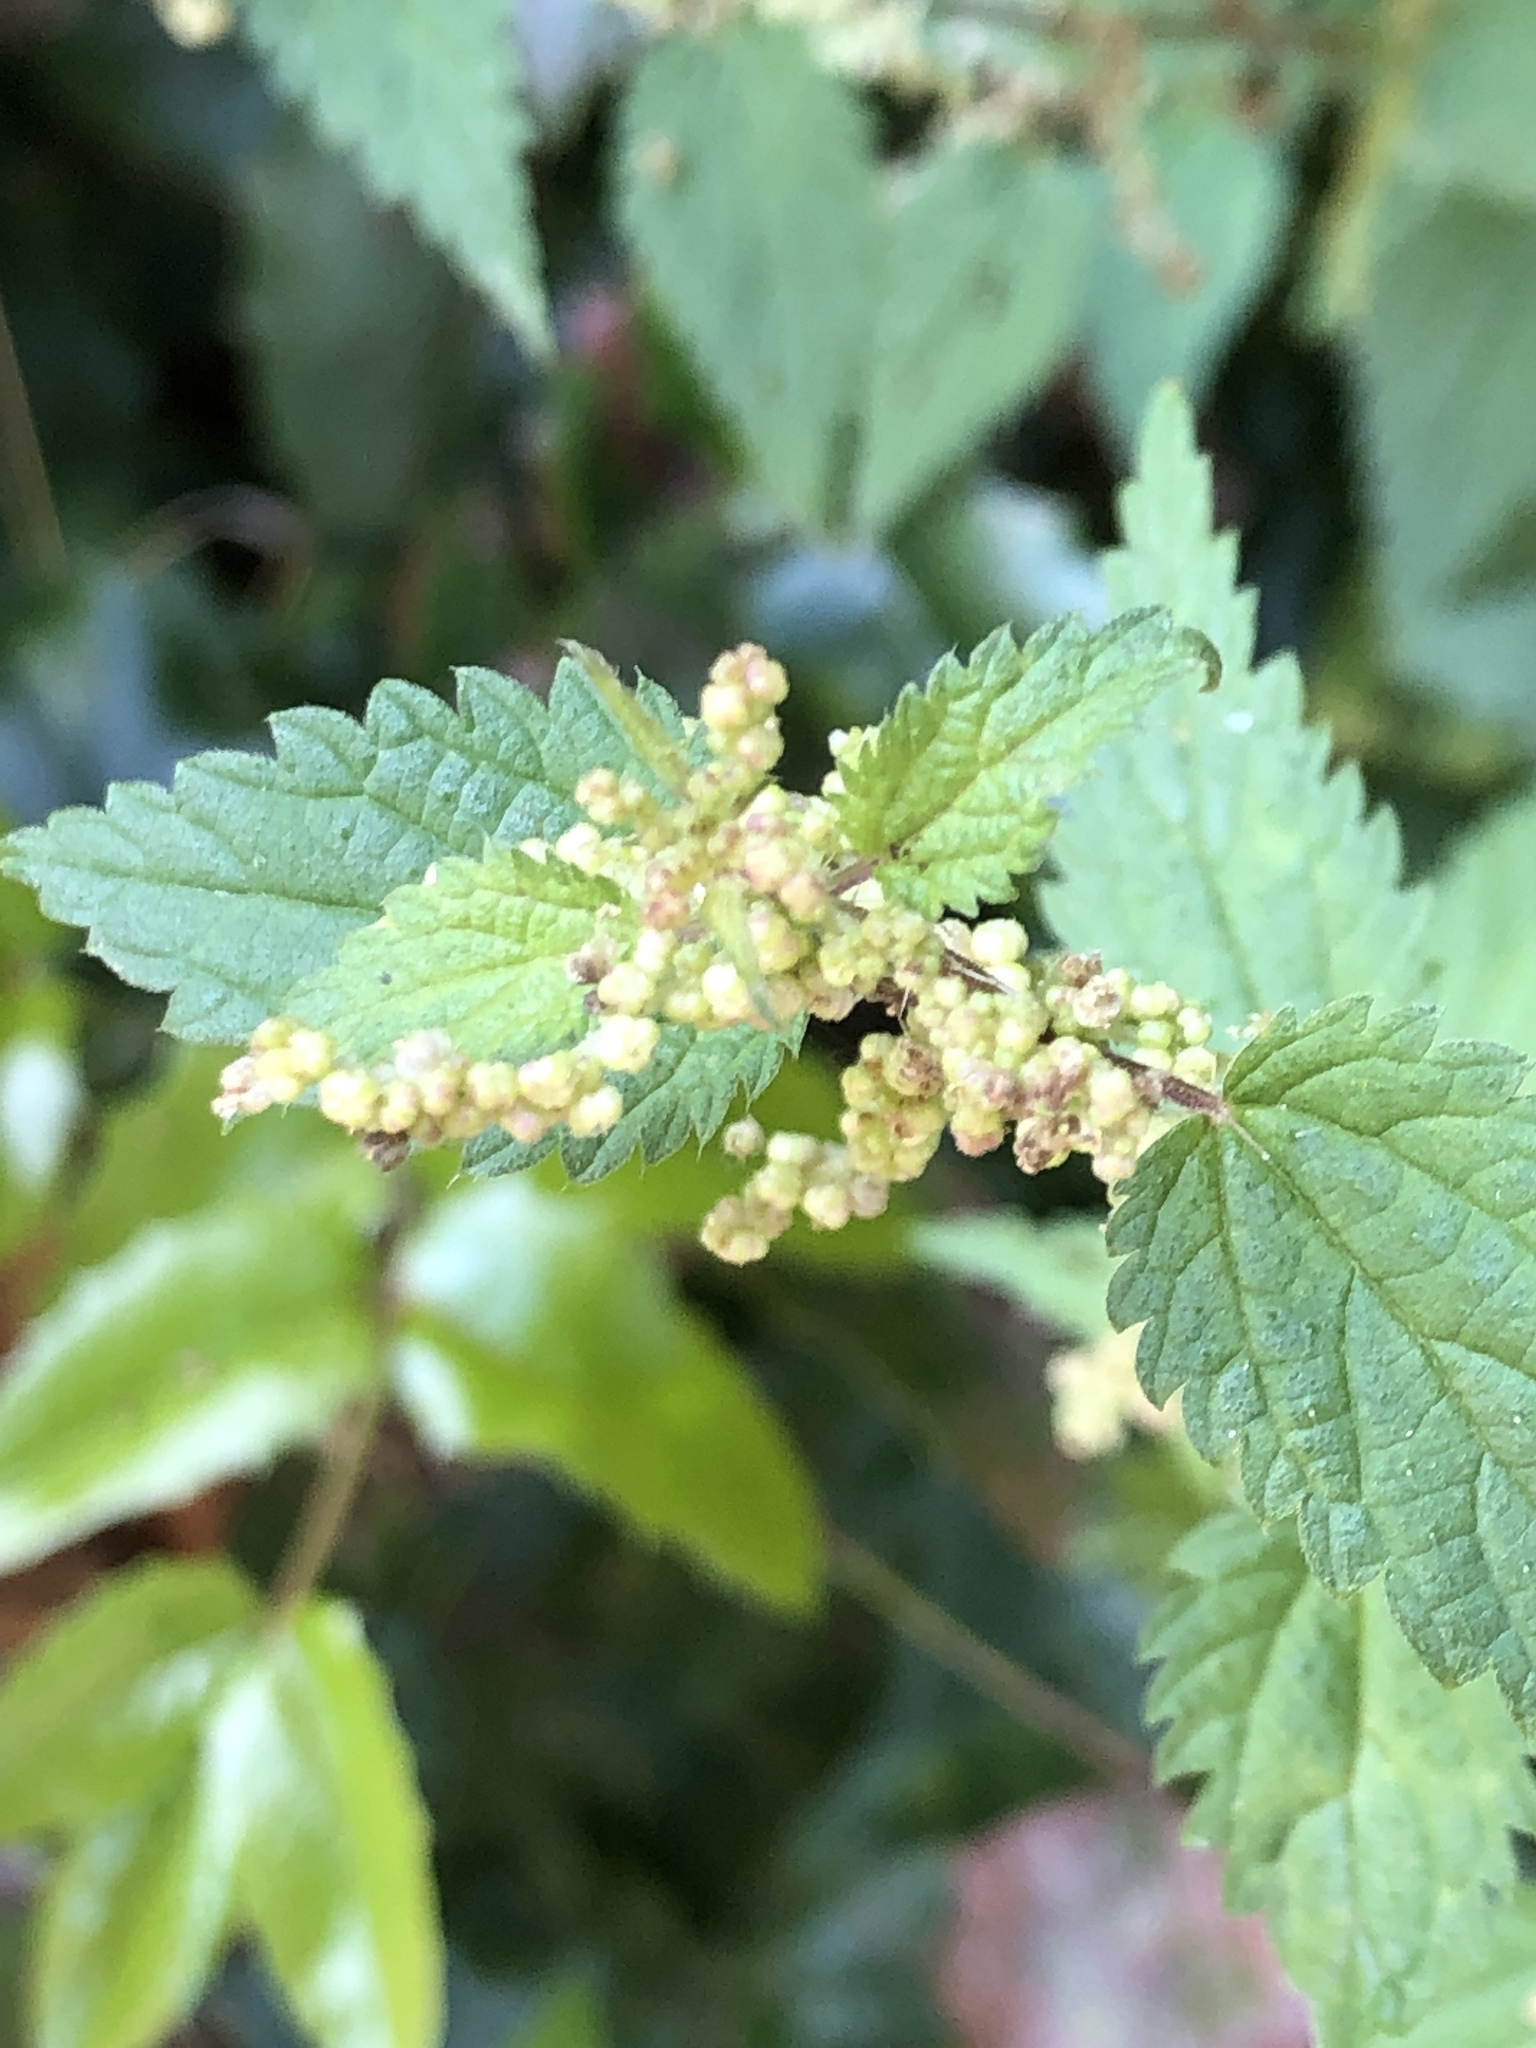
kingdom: Plantae
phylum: Tracheophyta
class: Magnoliopsida
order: Rosales
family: Urticaceae
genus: Urtica
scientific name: Urtica dioica
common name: Common nettle
